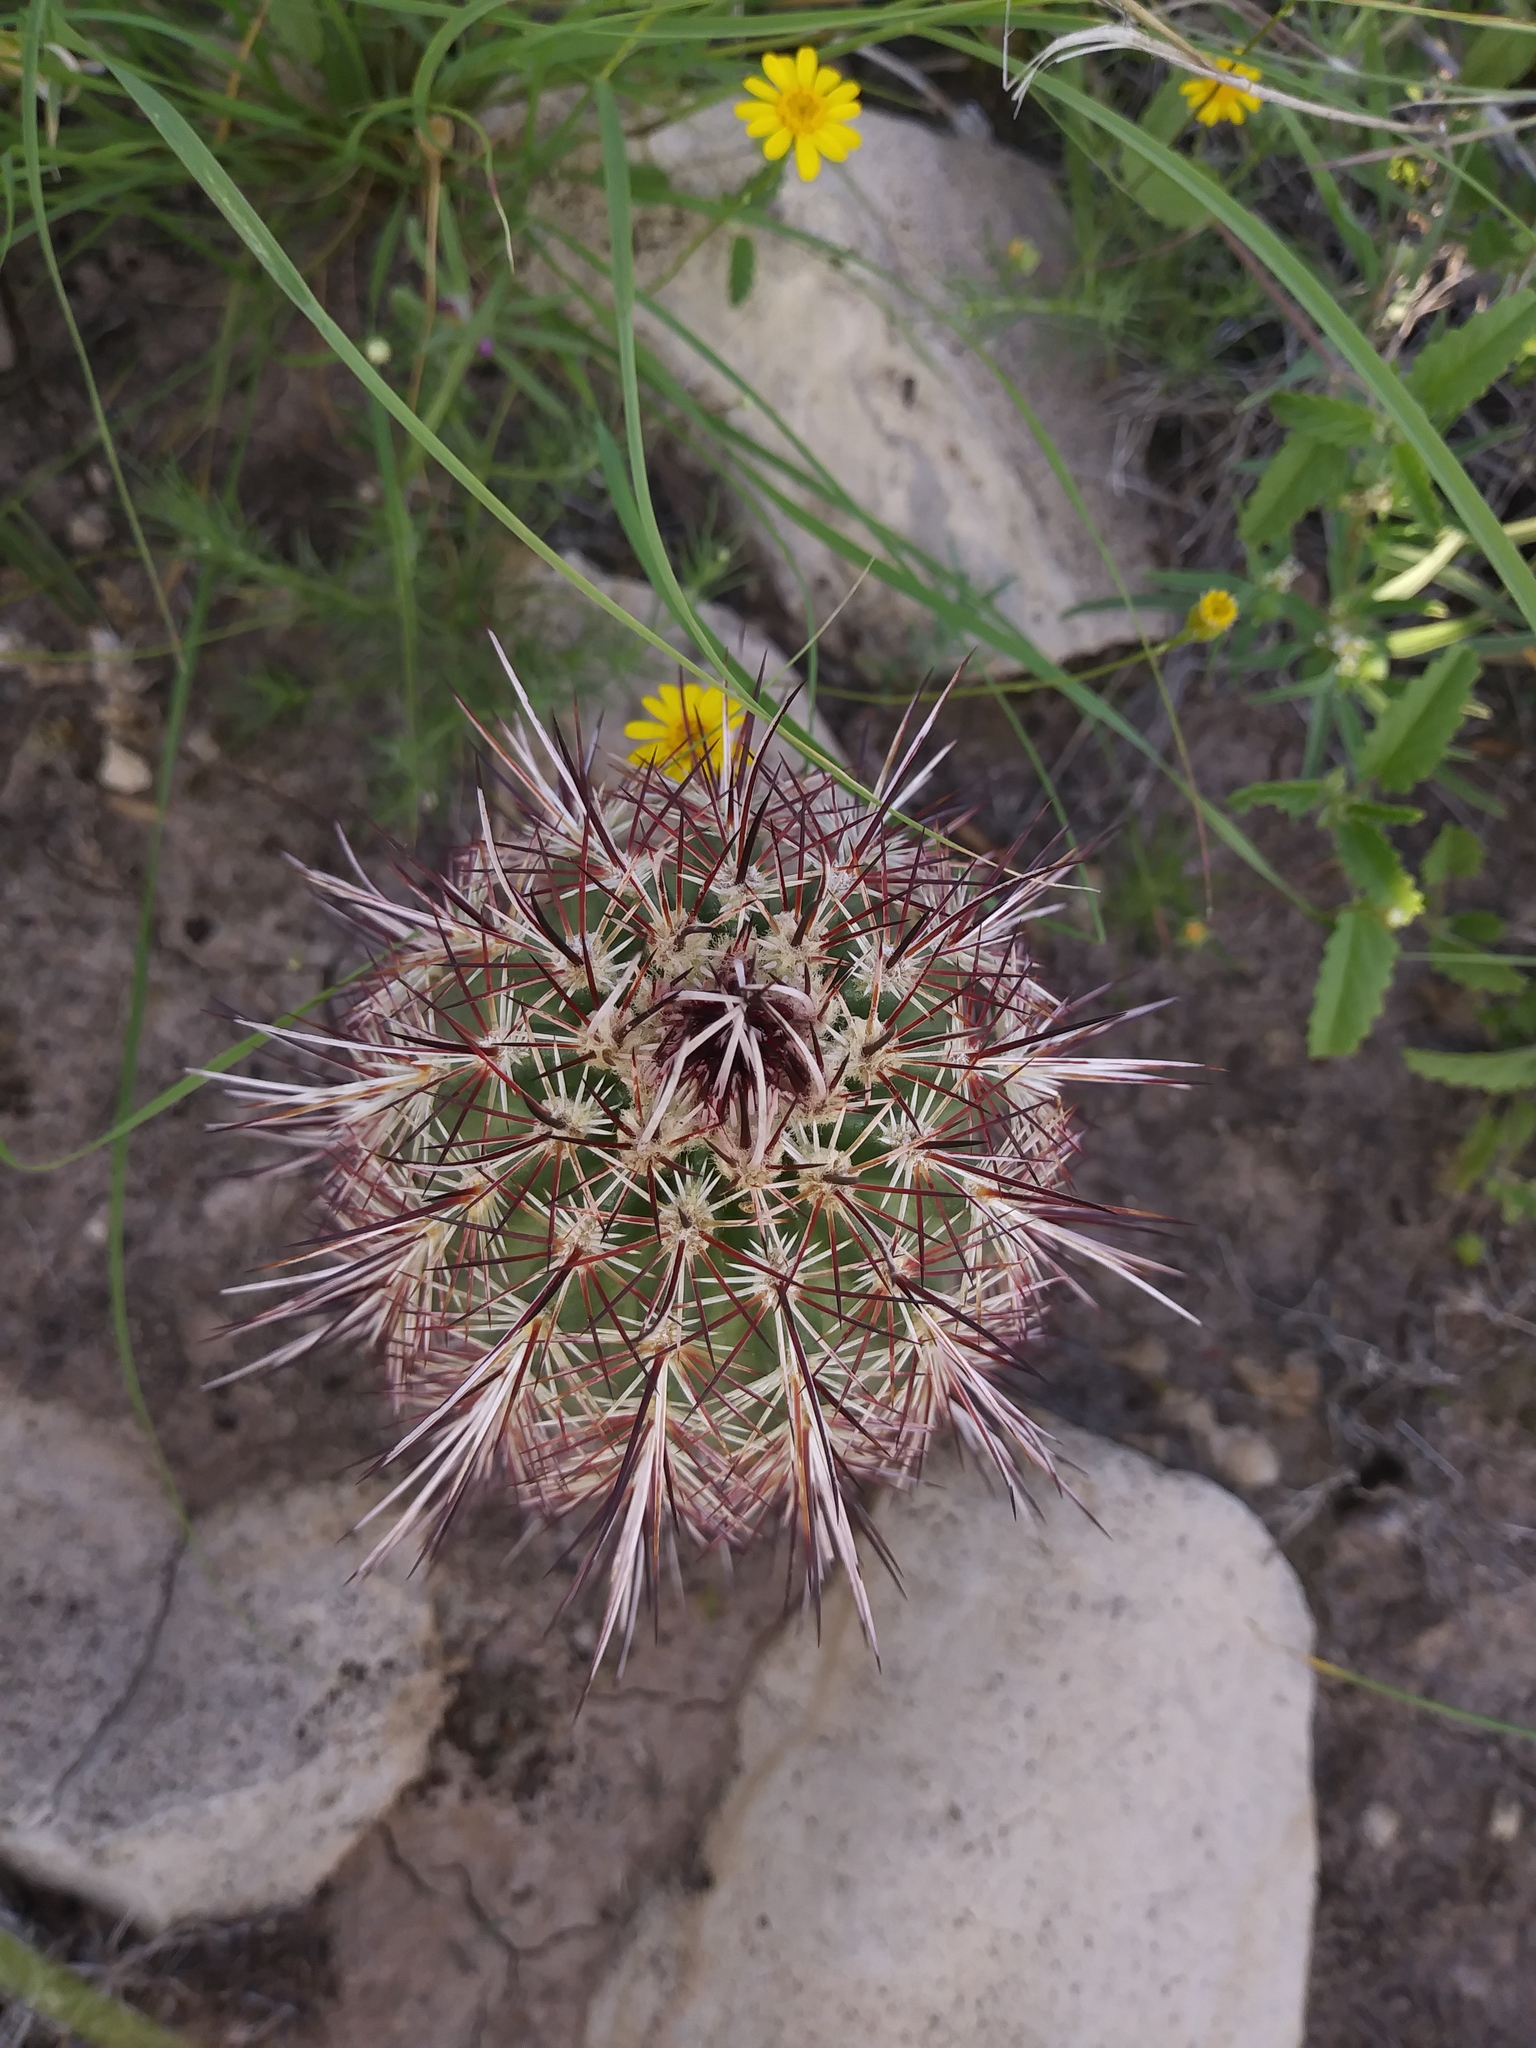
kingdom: Plantae
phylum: Tracheophyta
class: Magnoliopsida
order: Caryophyllales
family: Cactaceae
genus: Echinocereus
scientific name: Echinocereus viridiflorus
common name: Nylon hedgehog cactus
